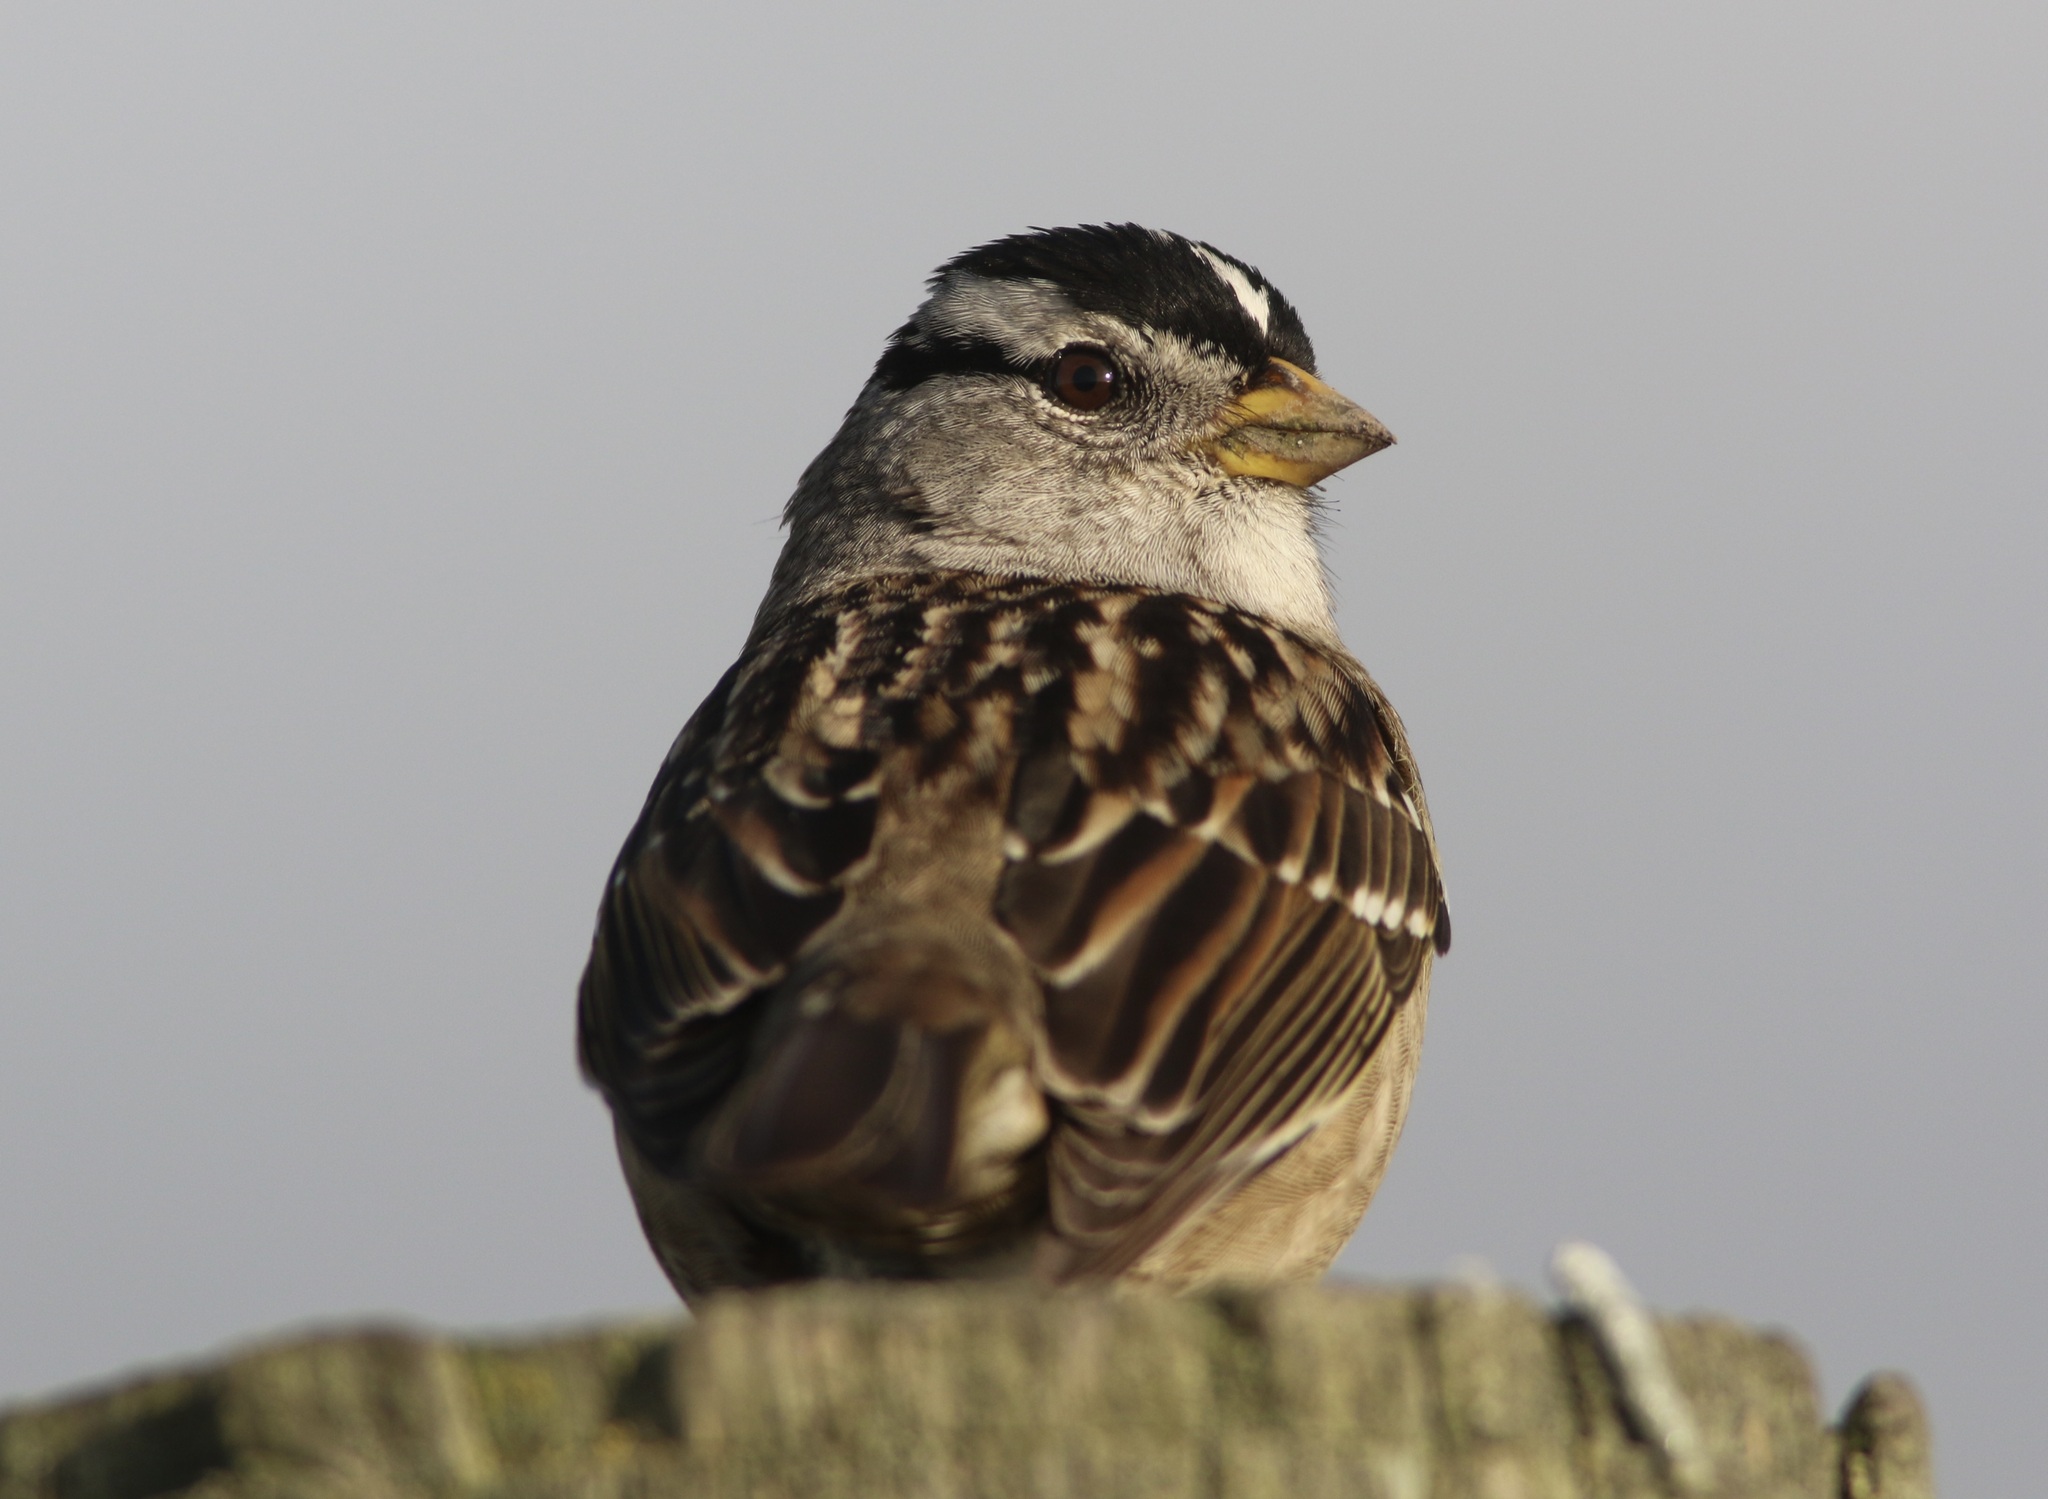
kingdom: Animalia
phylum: Chordata
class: Aves
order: Passeriformes
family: Passerellidae
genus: Zonotrichia
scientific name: Zonotrichia leucophrys
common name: White-crowned sparrow
